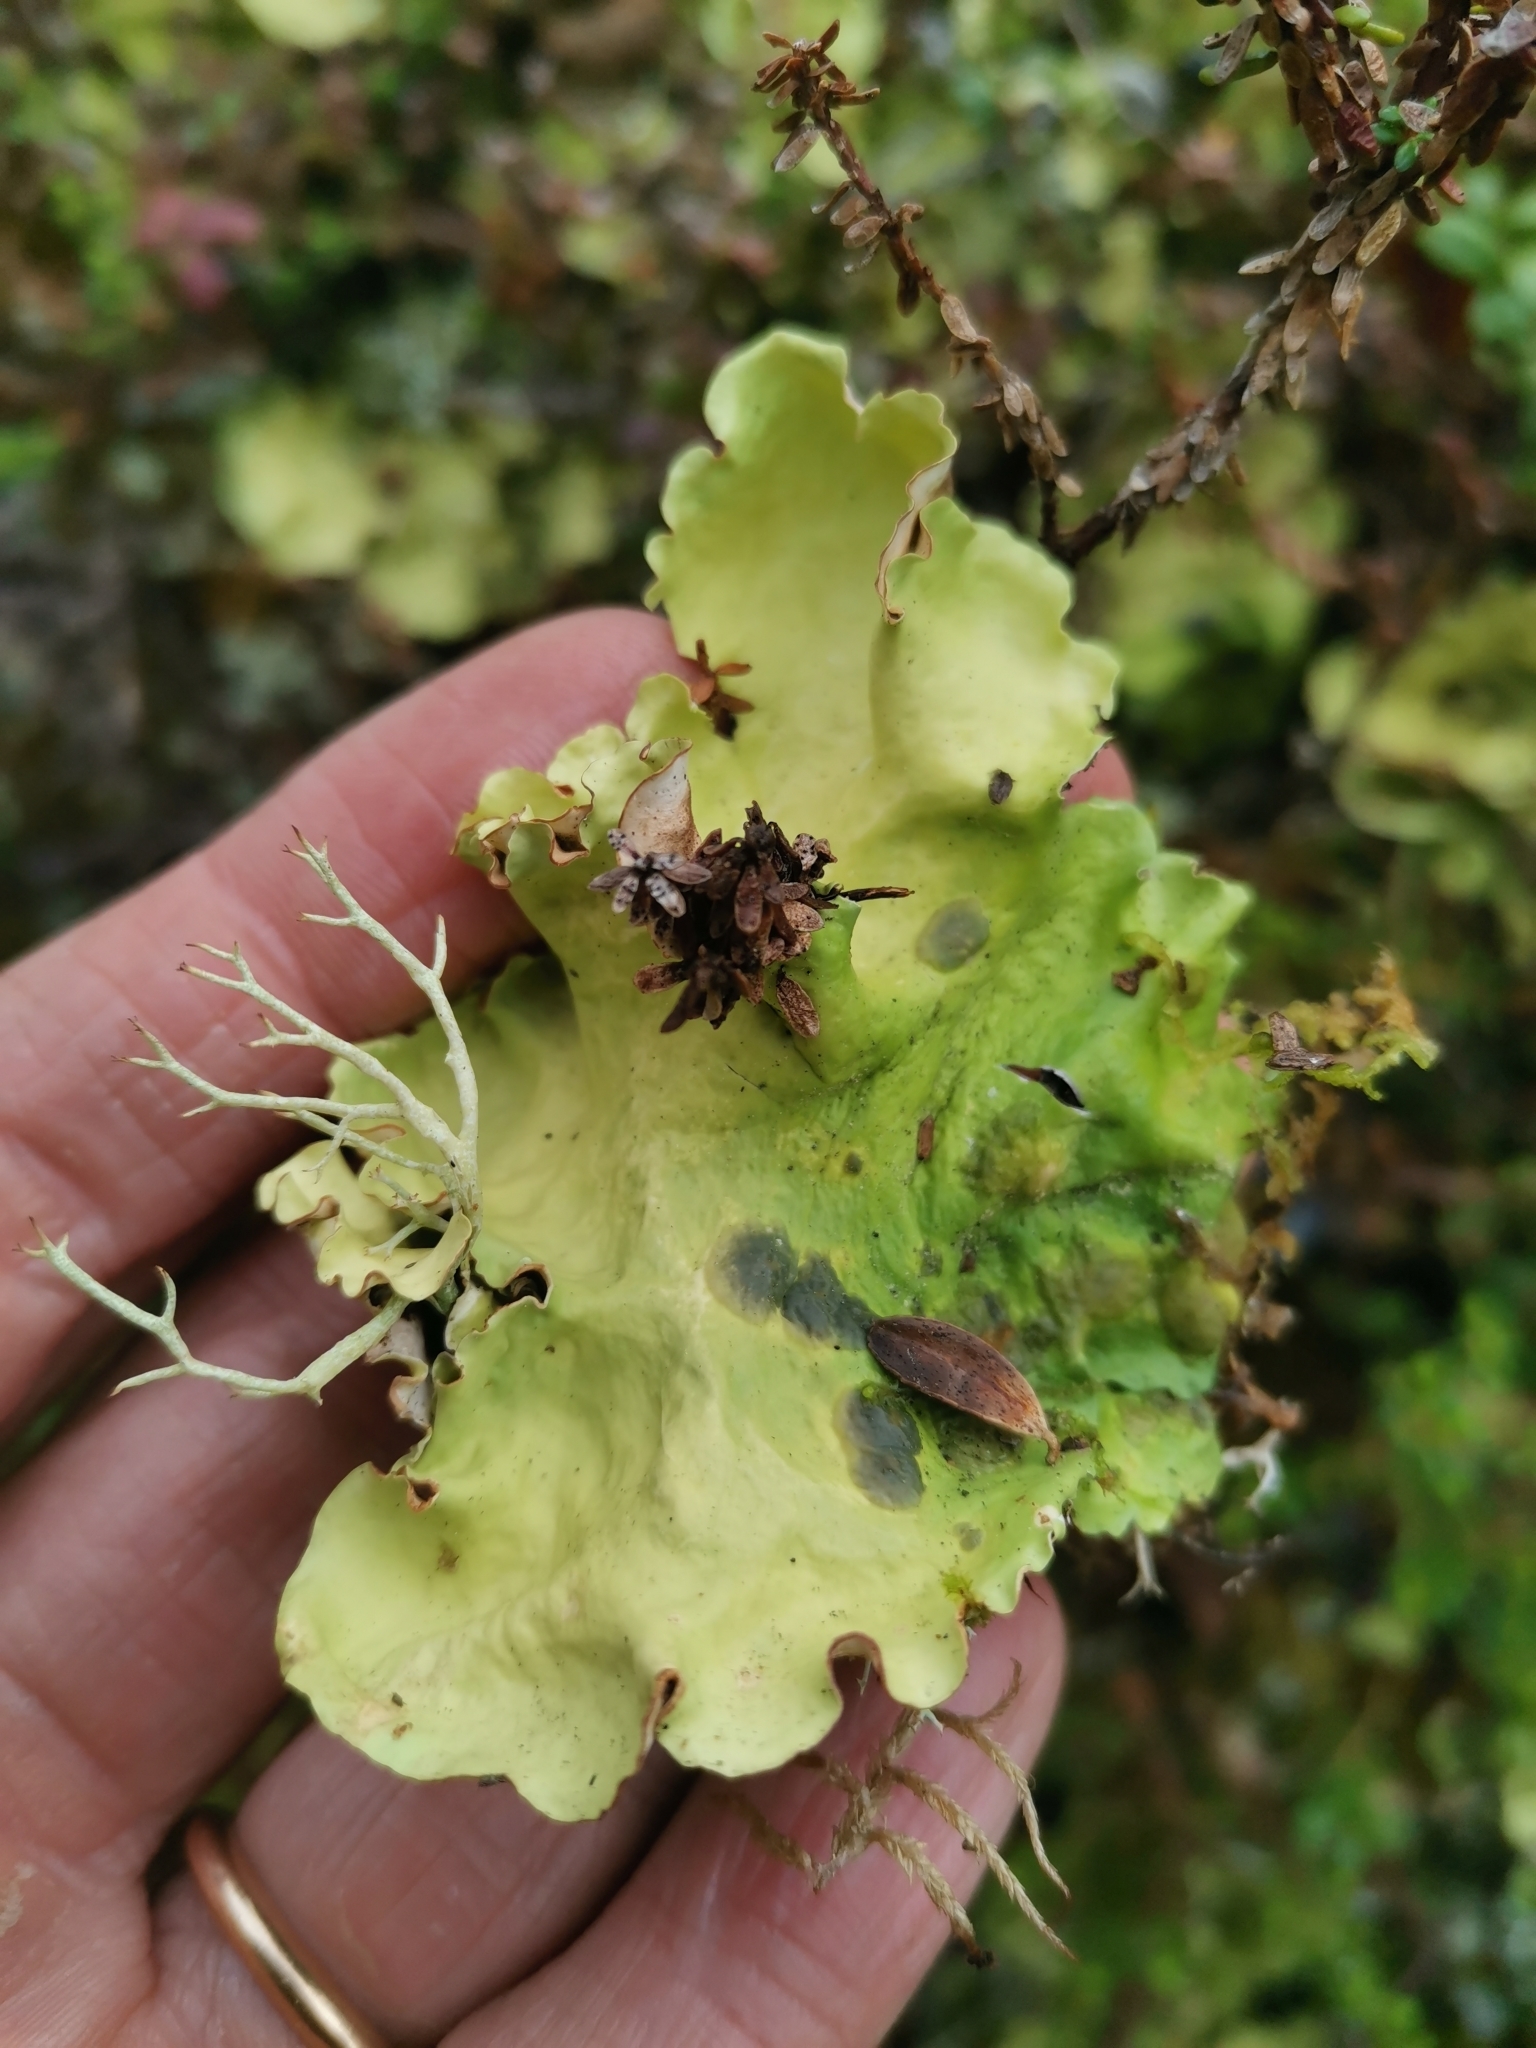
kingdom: Fungi
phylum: Ascomycota
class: Lecanoromycetes
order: Peltigerales
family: Nephromataceae
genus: Nephroma
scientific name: Nephroma arcticum
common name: Arctic kidney-lichen
